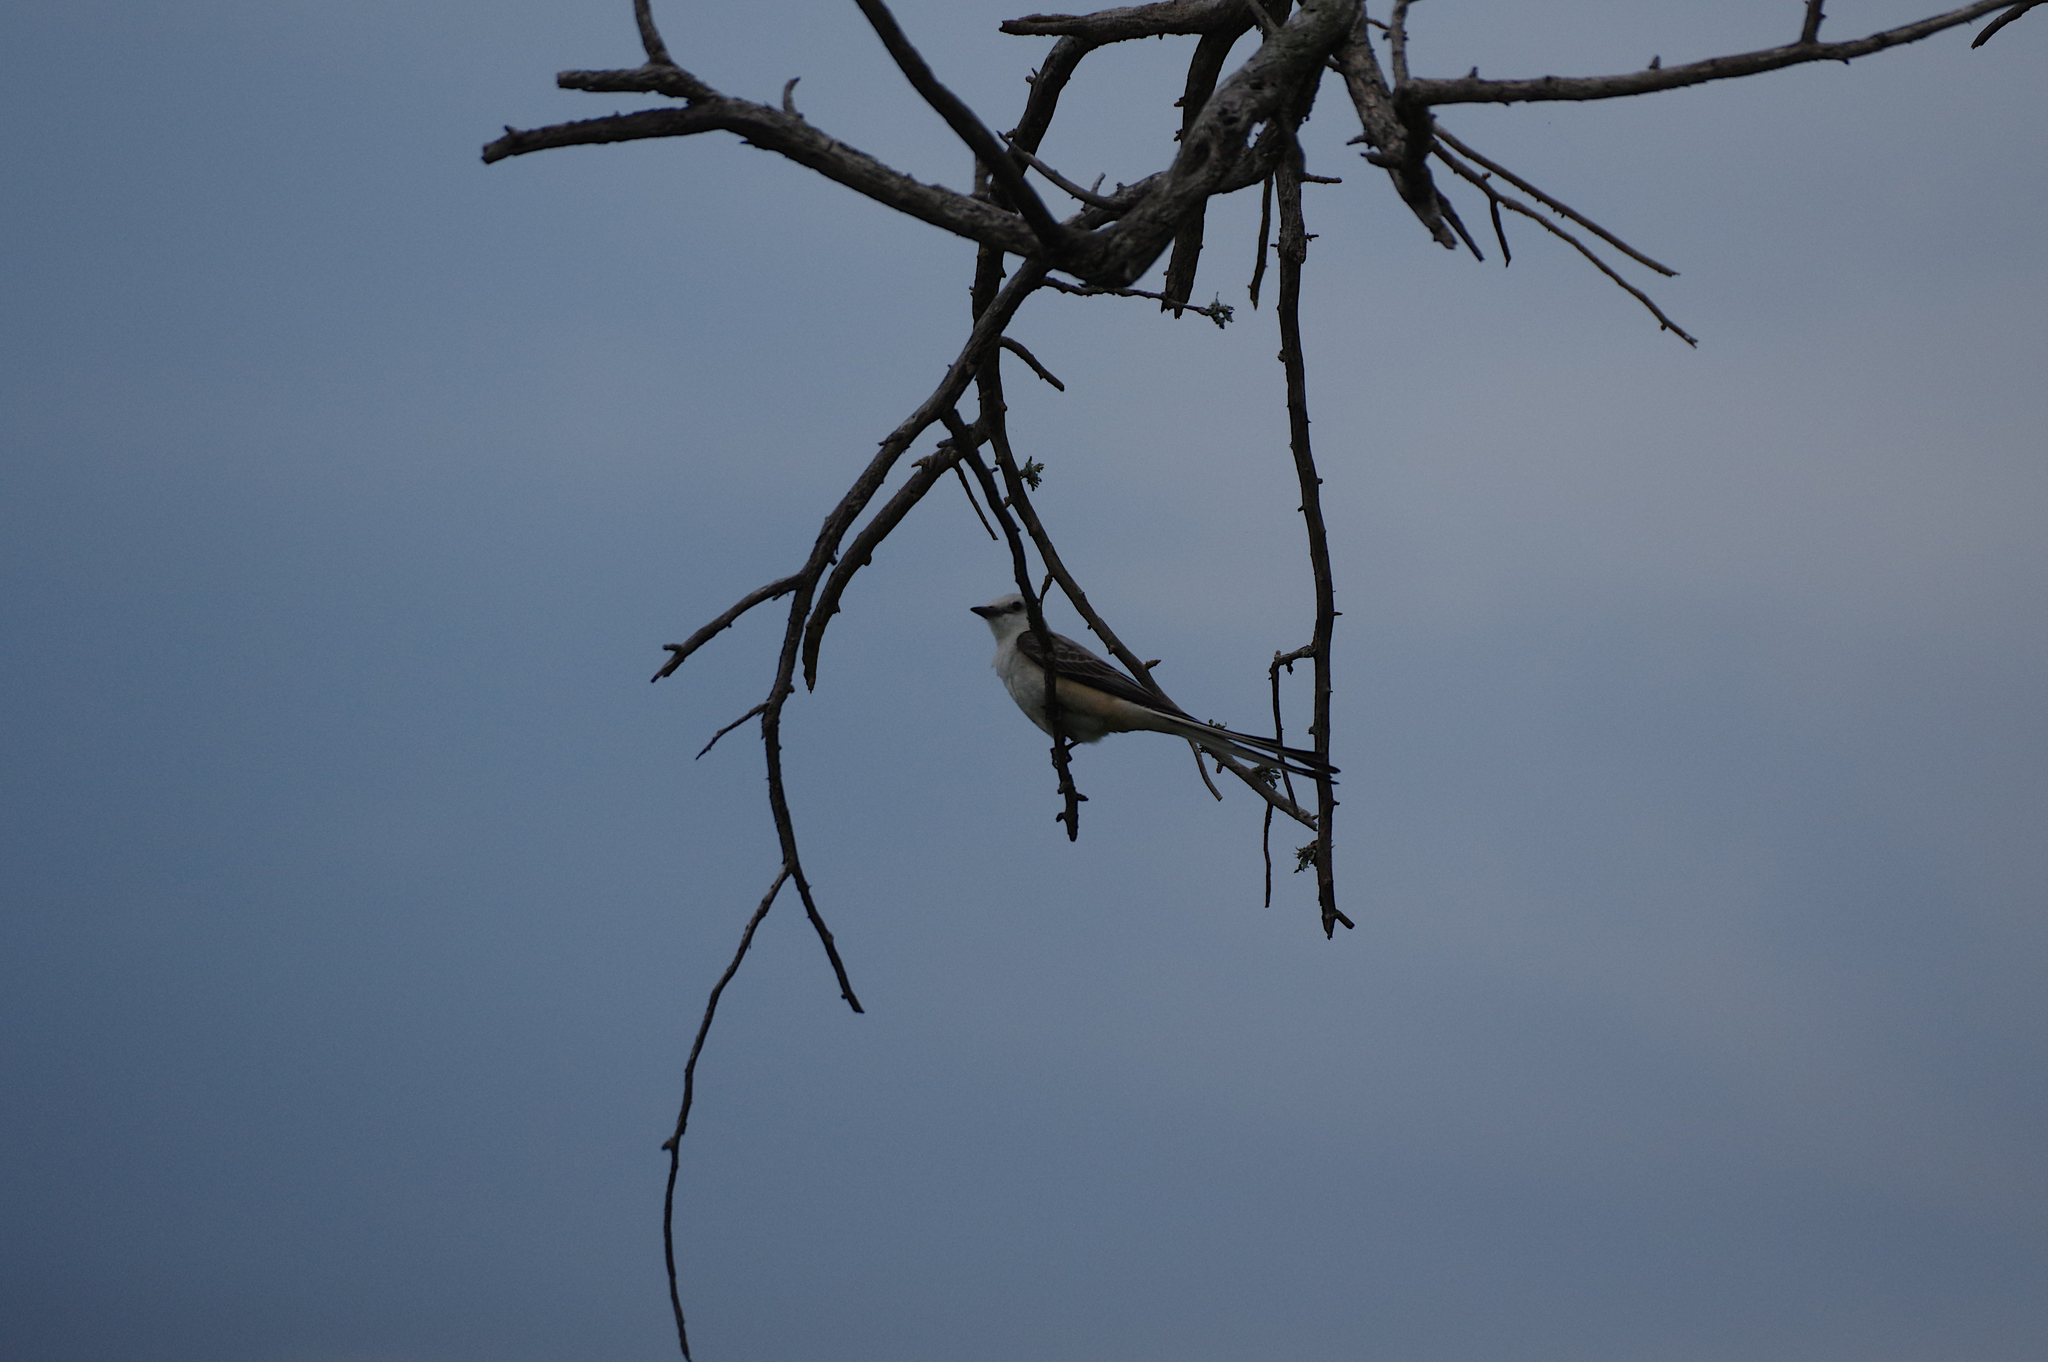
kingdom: Animalia
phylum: Chordata
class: Aves
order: Passeriformes
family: Tyrannidae
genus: Tyrannus
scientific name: Tyrannus forficatus
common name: Scissor-tailed flycatcher
